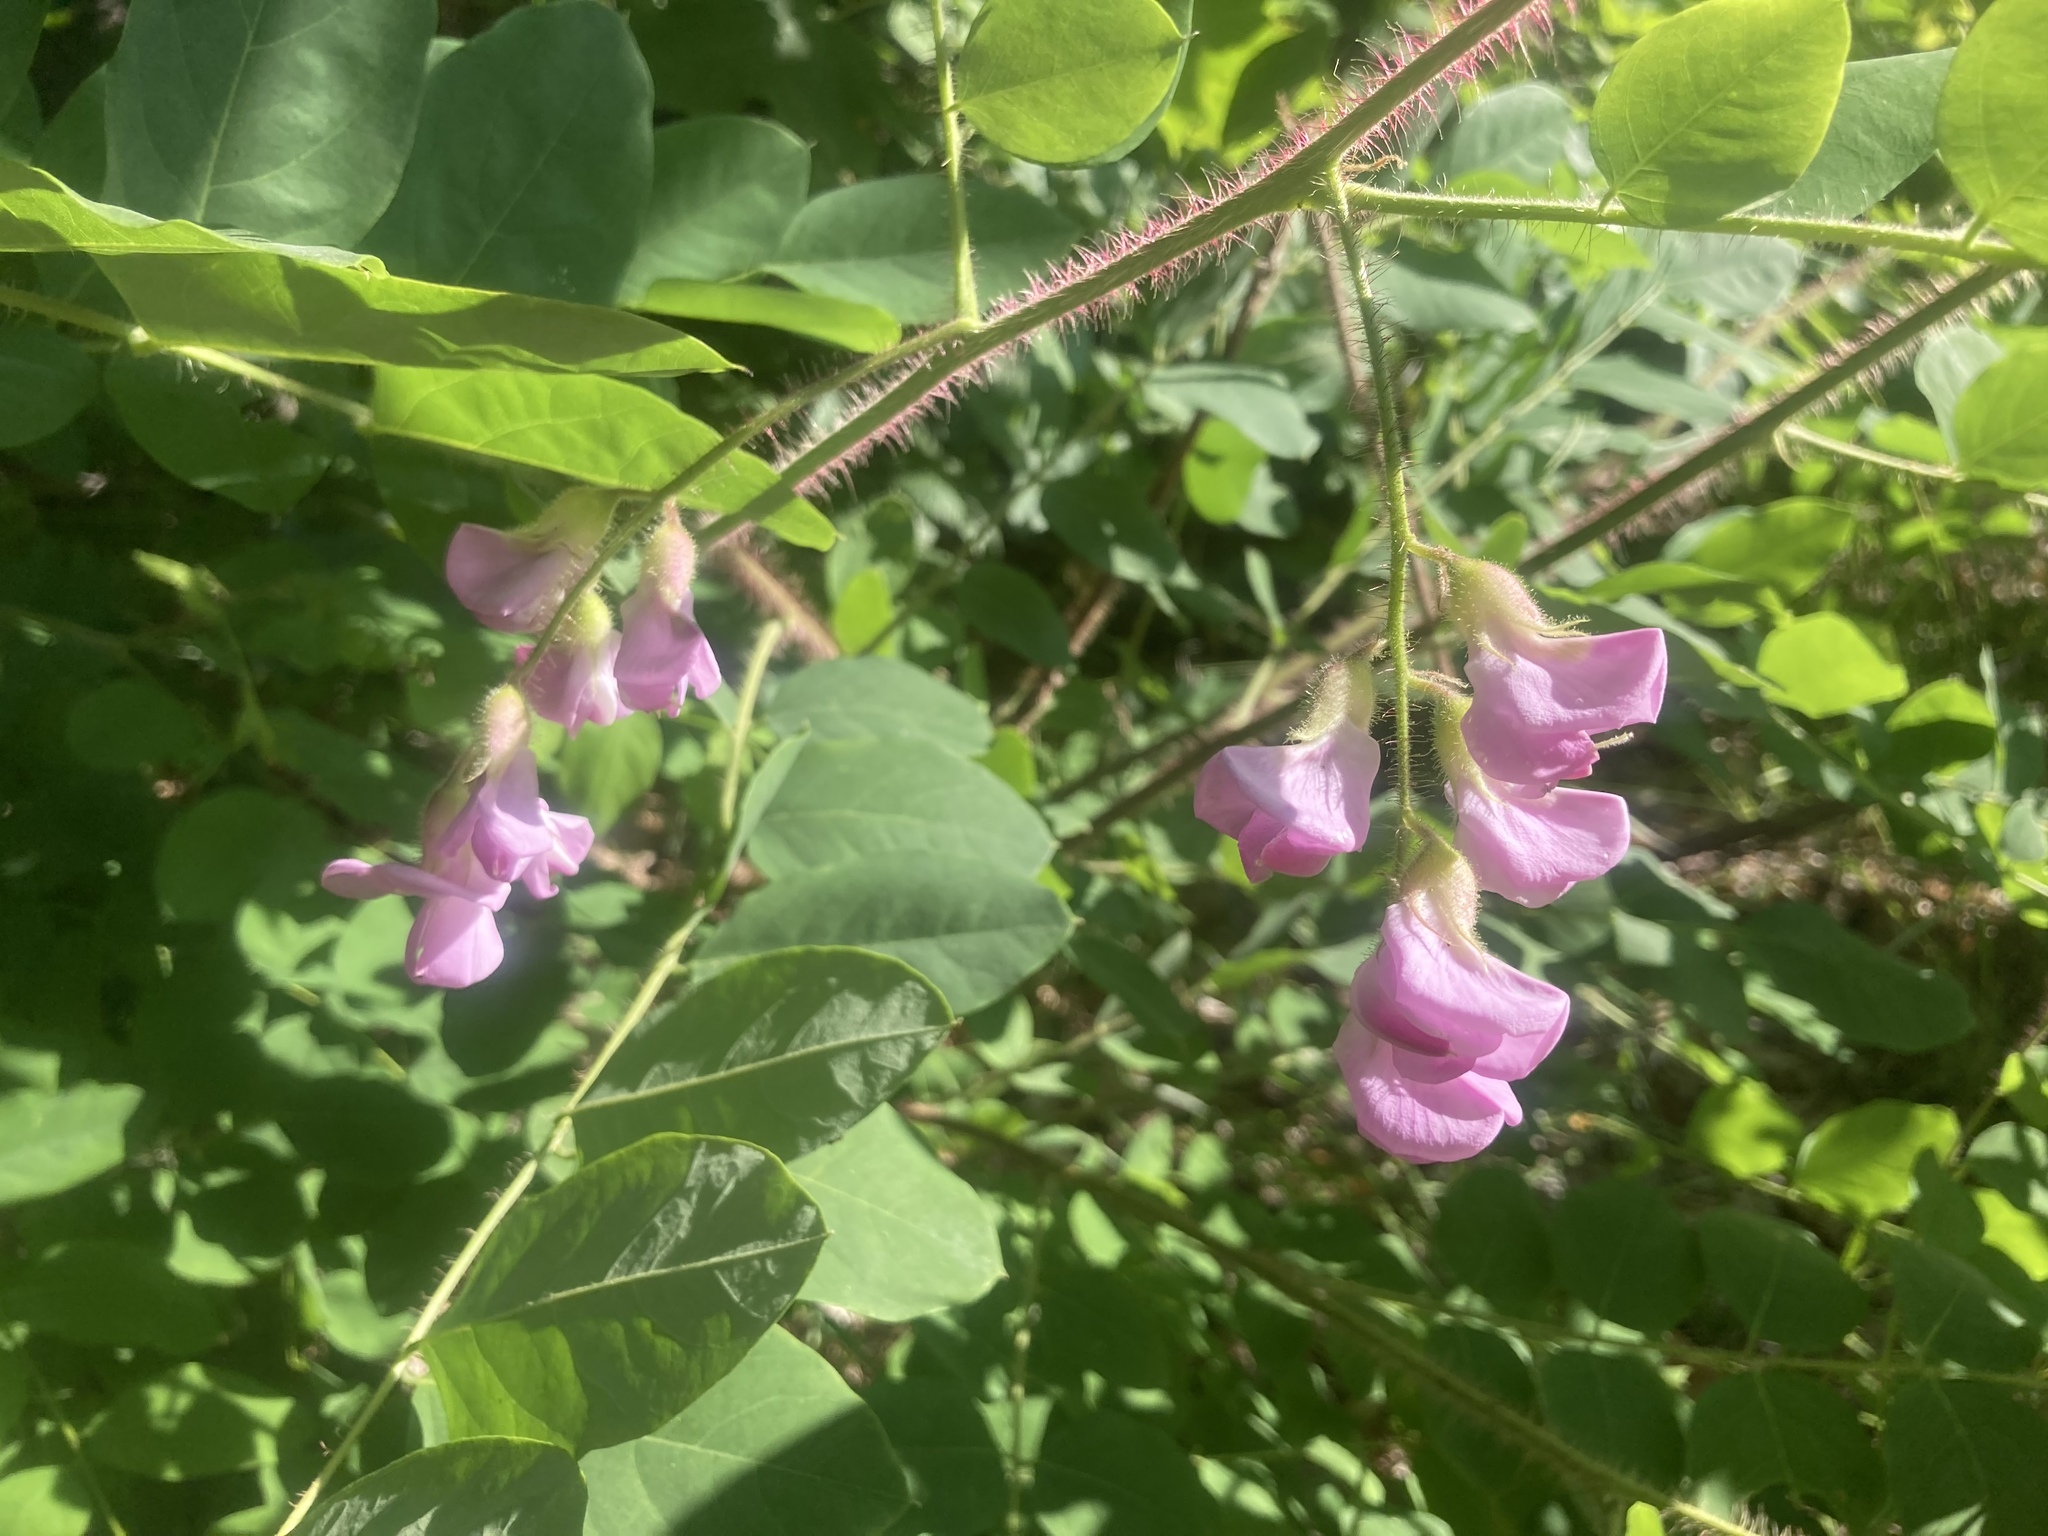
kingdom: Plantae
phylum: Tracheophyta
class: Magnoliopsida
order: Fabales
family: Fabaceae
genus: Robinia
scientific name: Robinia hispida
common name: Bristly locust
